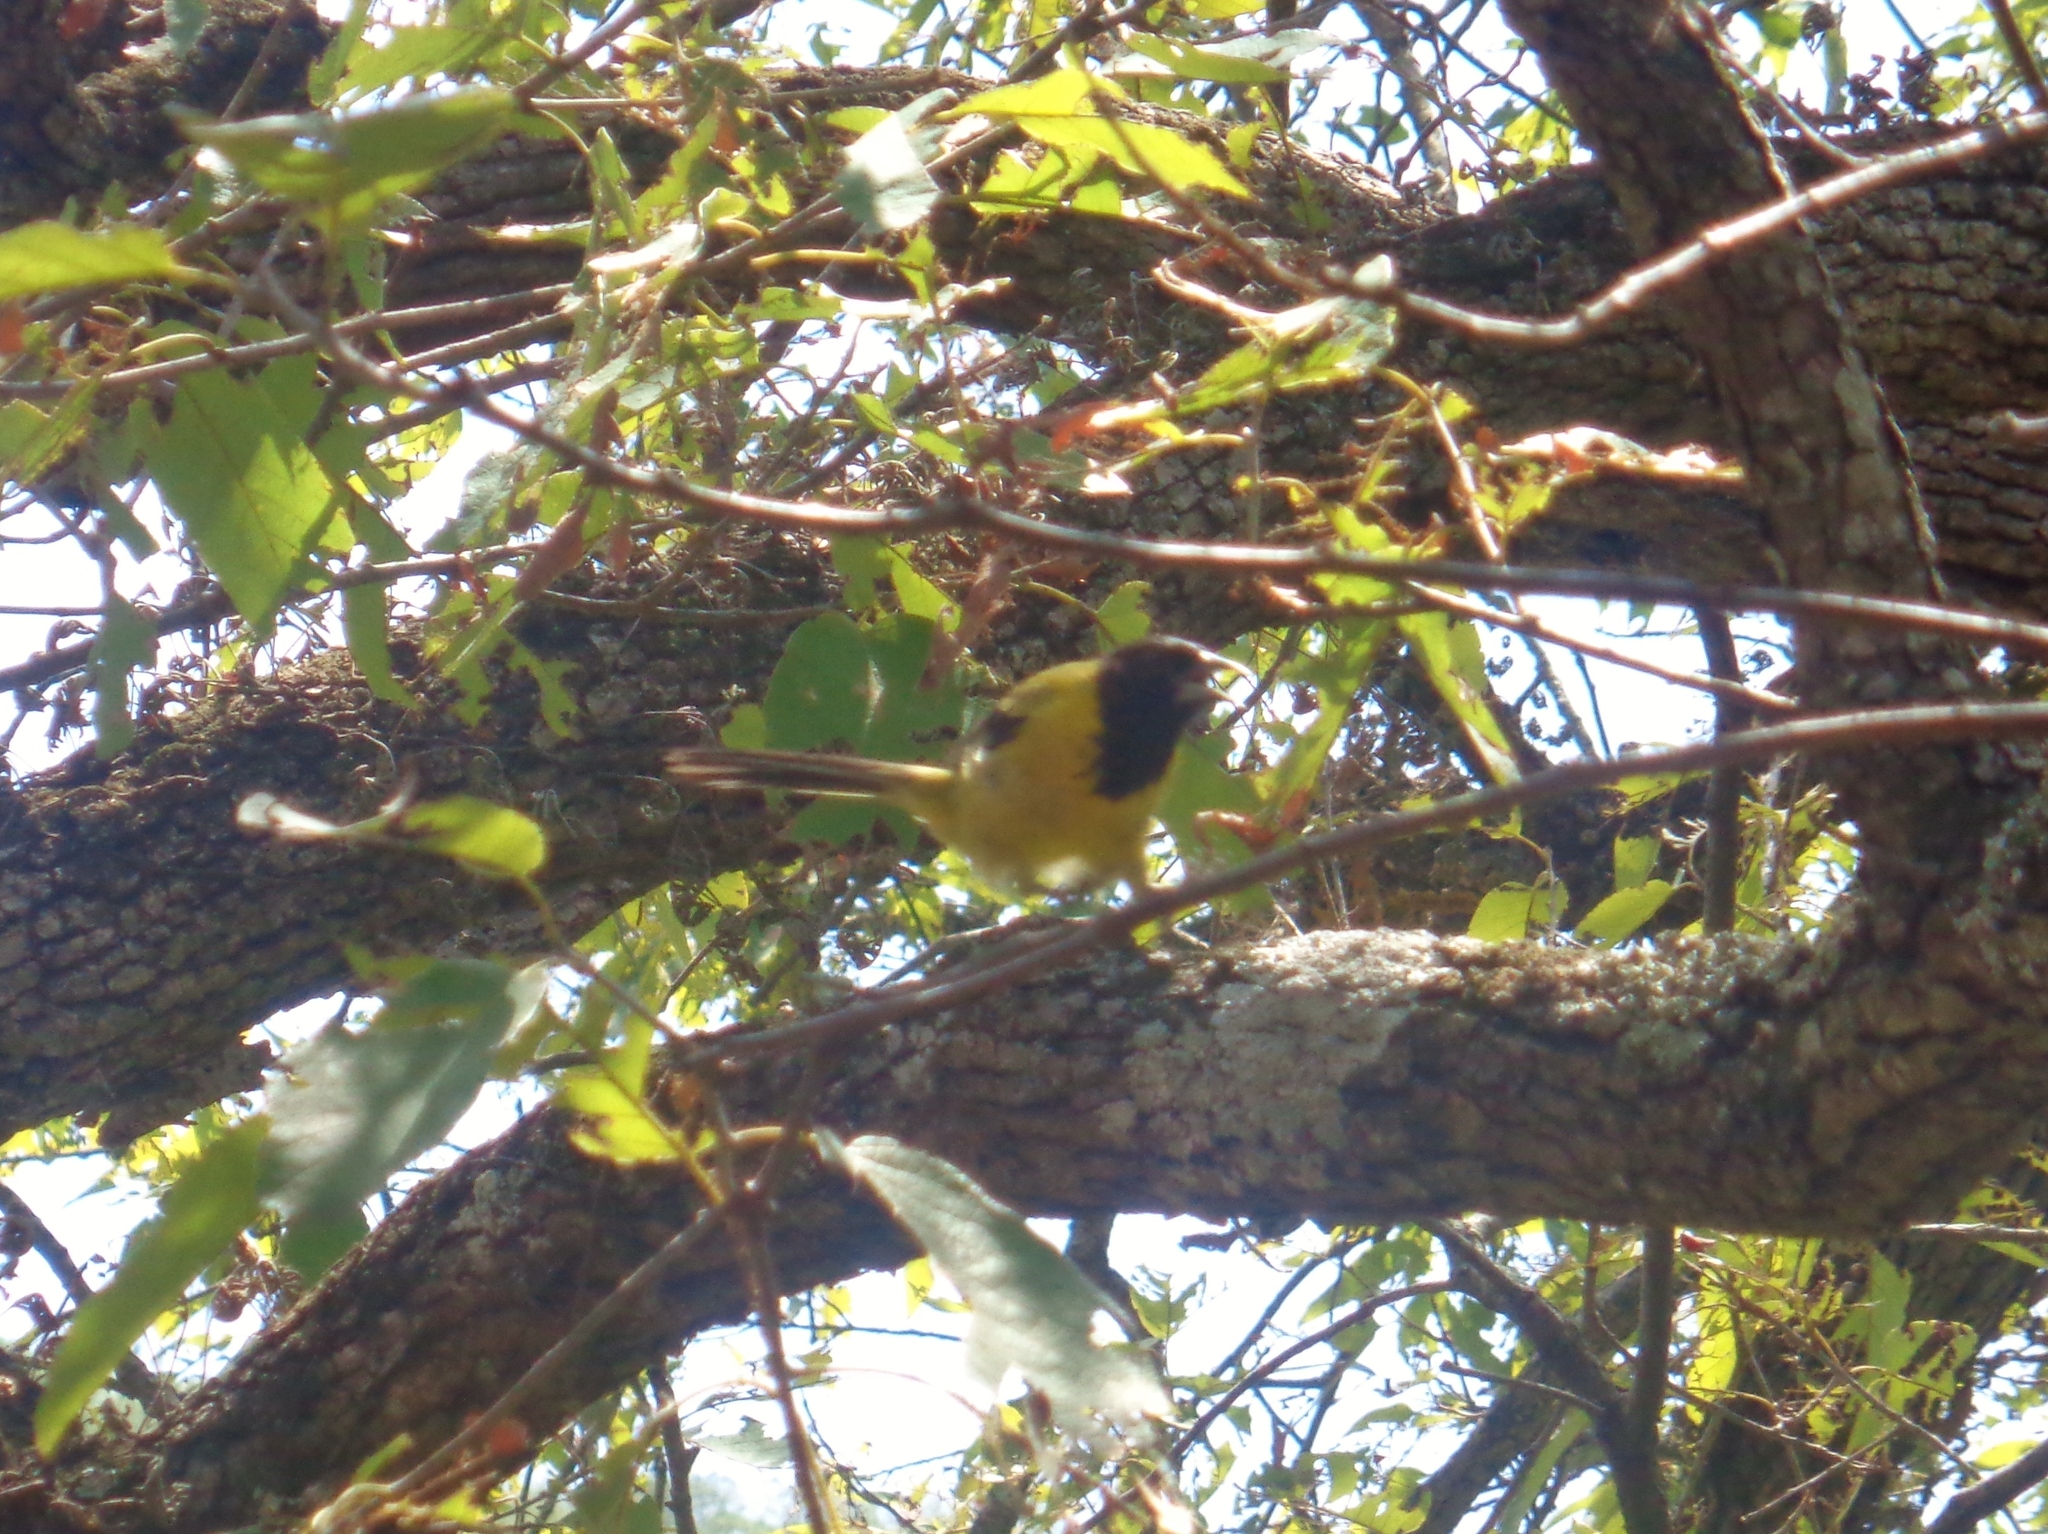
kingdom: Animalia
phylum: Chordata
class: Aves
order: Passeriformes
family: Icteridae
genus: Icterus
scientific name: Icterus graduacauda
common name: Audubon's oriole
